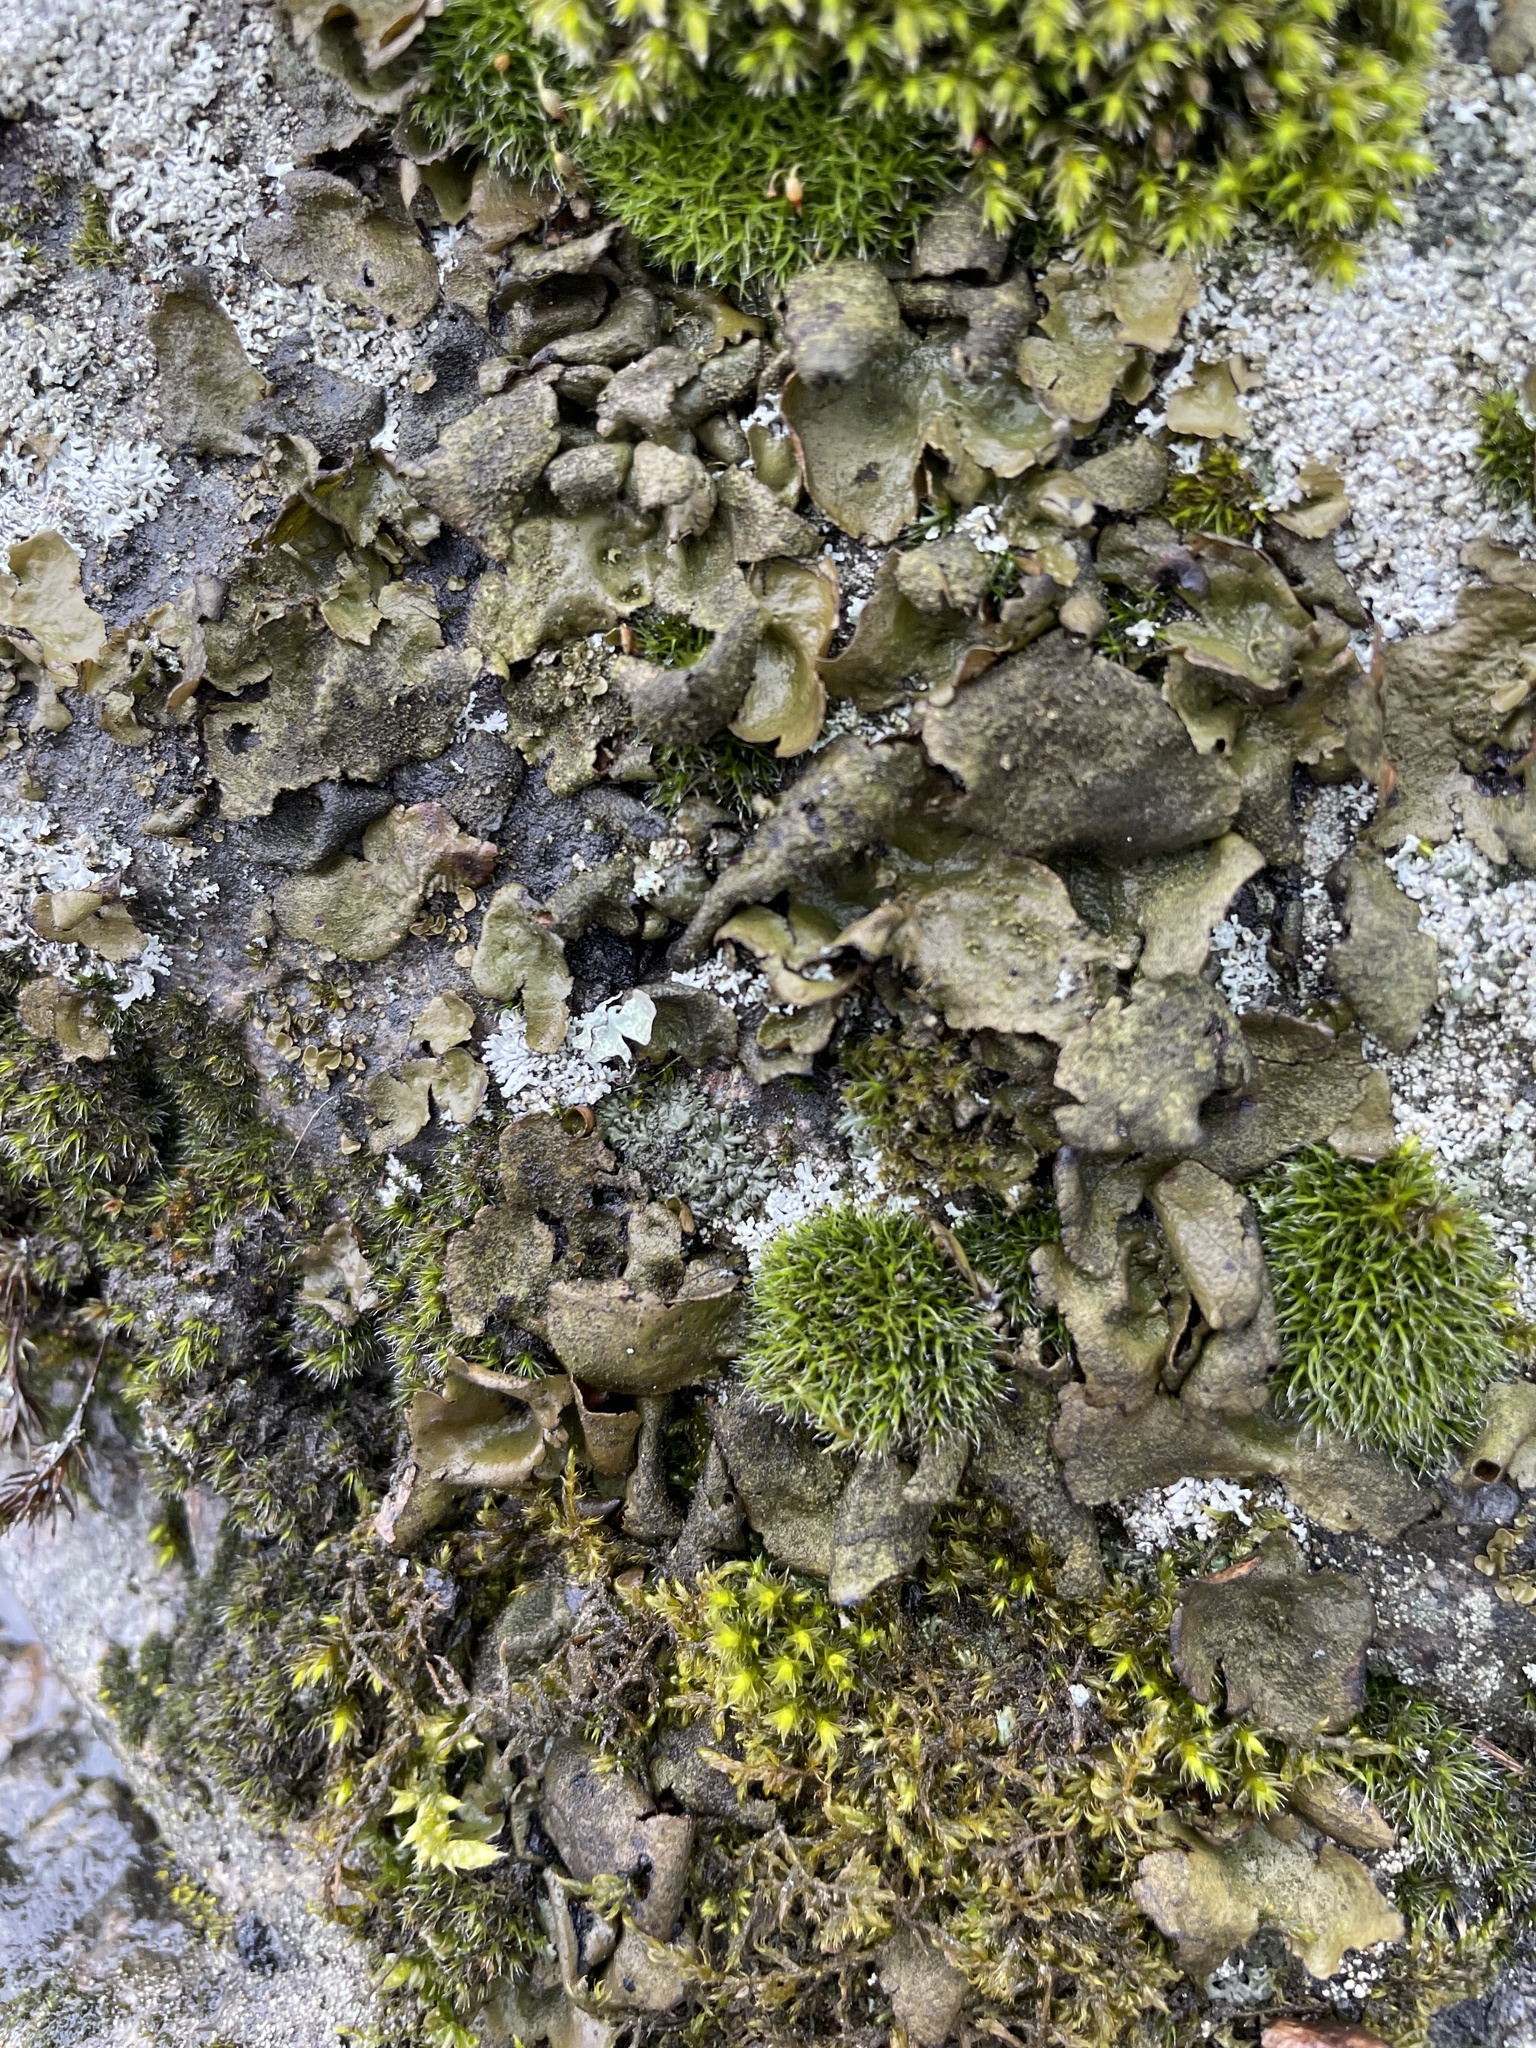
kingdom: Fungi
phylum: Ascomycota
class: Lecanoromycetes
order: Umbilicariales
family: Umbilicariaceae
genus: Umbilicaria
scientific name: Umbilicaria deusta
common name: Peppered rock tripe
